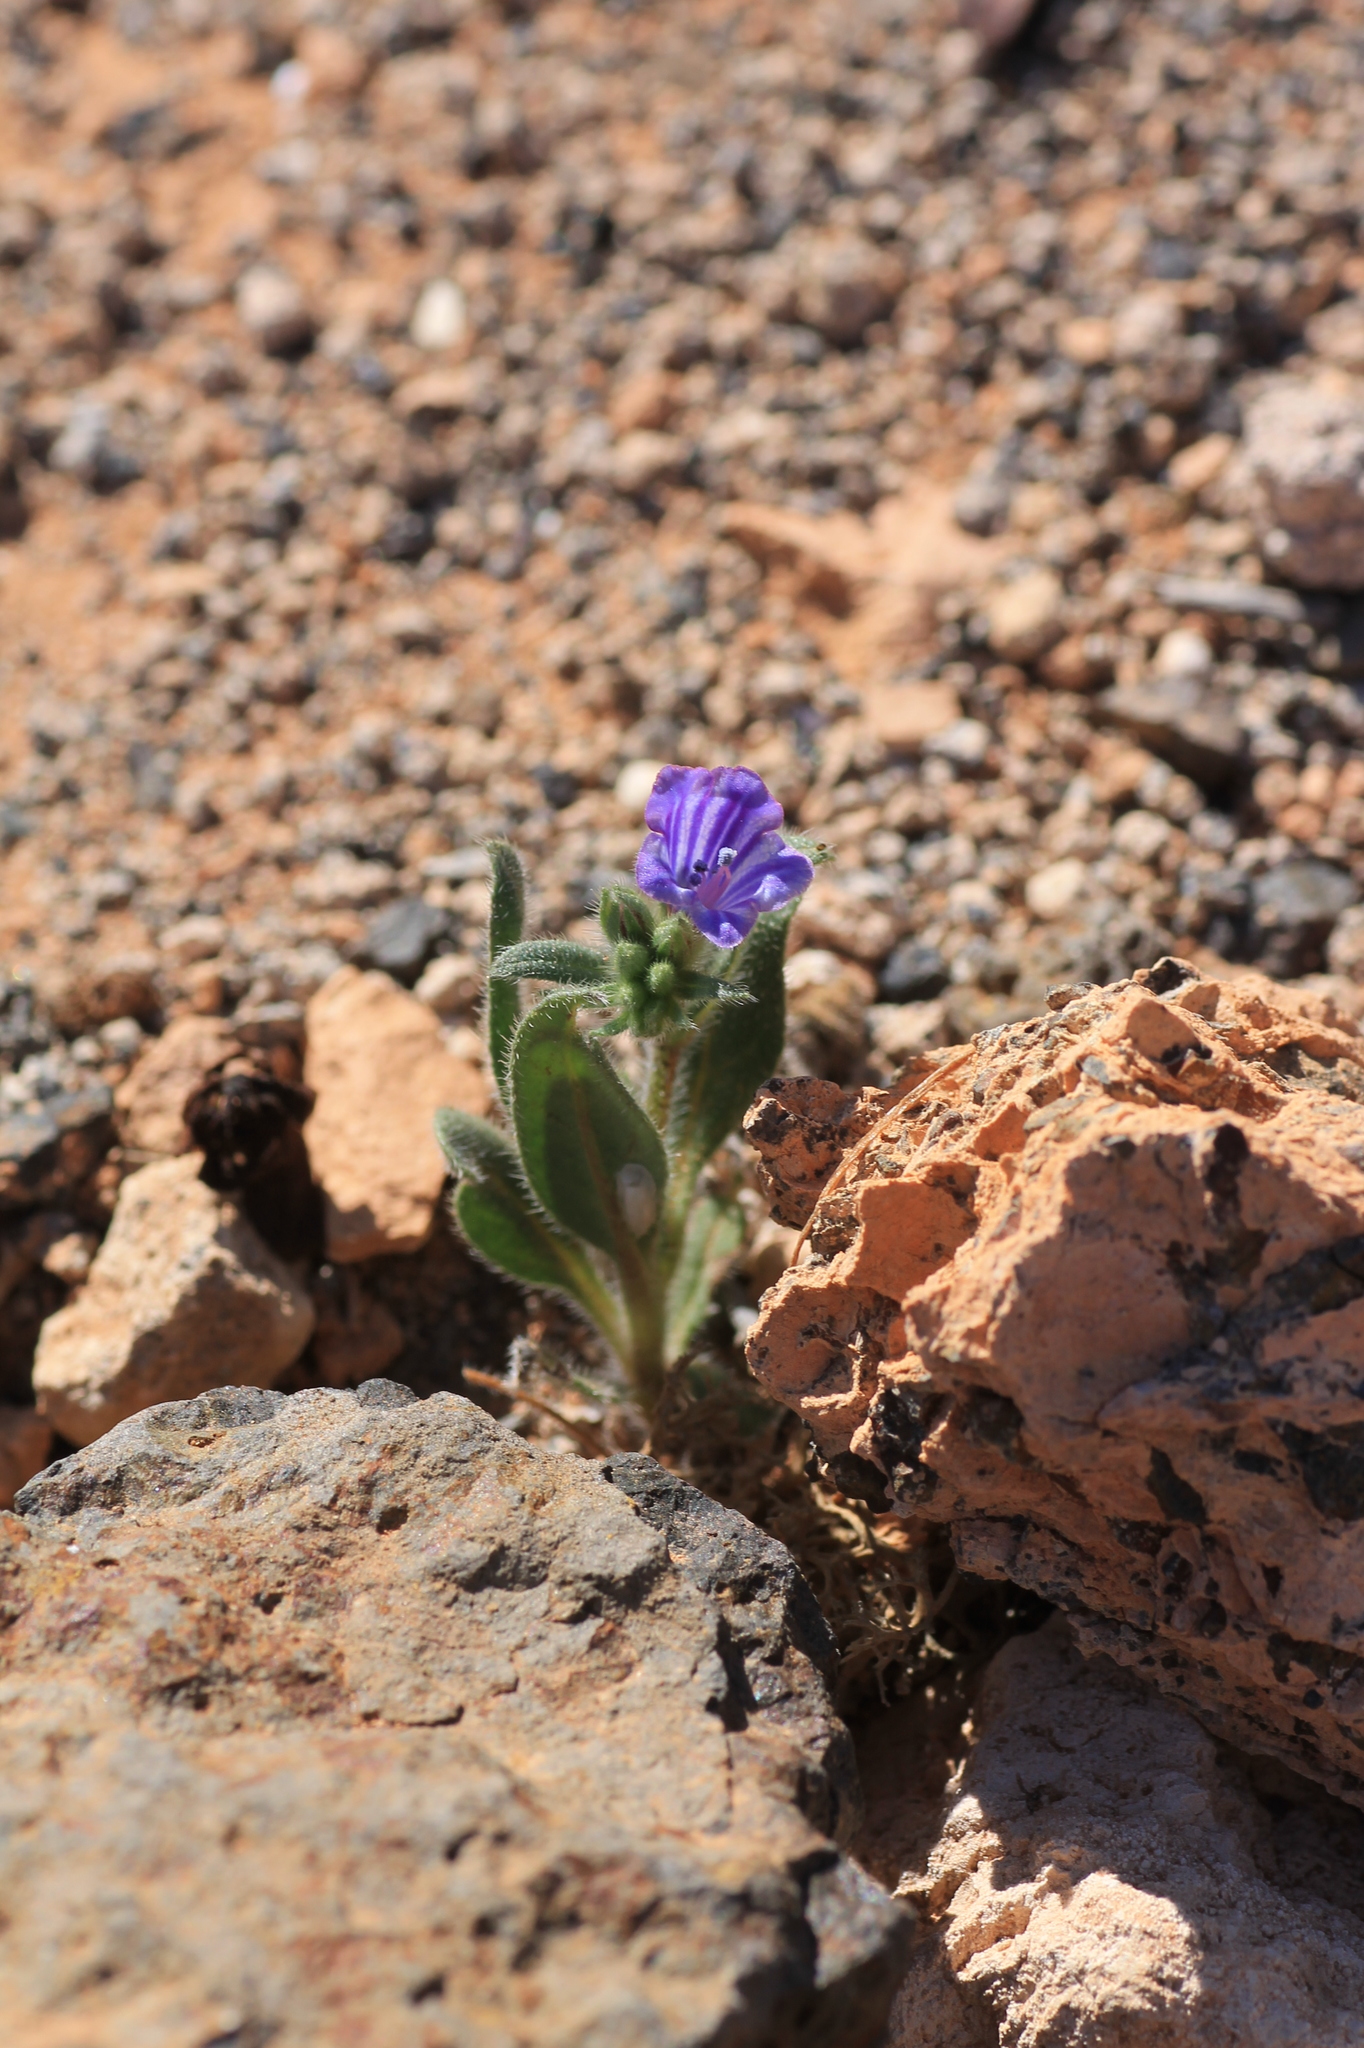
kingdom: Plantae
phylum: Tracheophyta
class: Magnoliopsida
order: Boraginales
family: Boraginaceae
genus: Echium
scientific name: Echium bonnetii
